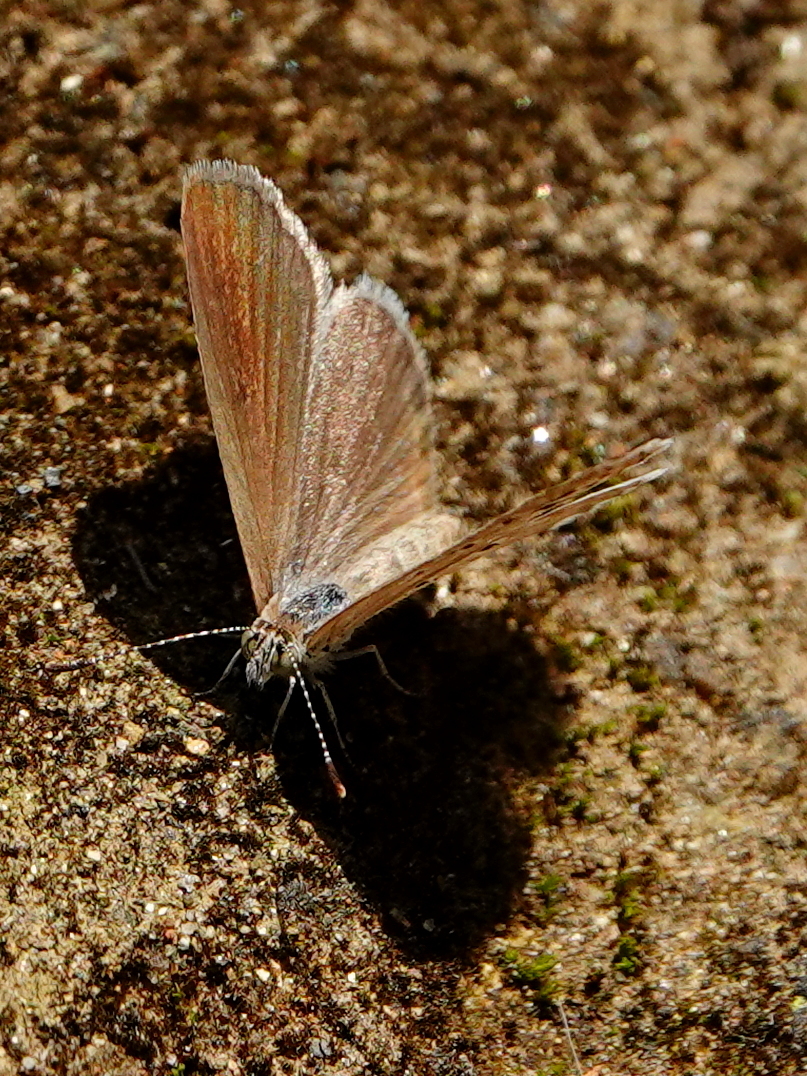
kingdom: Animalia
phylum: Arthropoda
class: Insecta
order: Lepidoptera
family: Lycaenidae
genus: Zizeeria
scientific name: Zizeeria karsandra
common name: Dark grass blue
